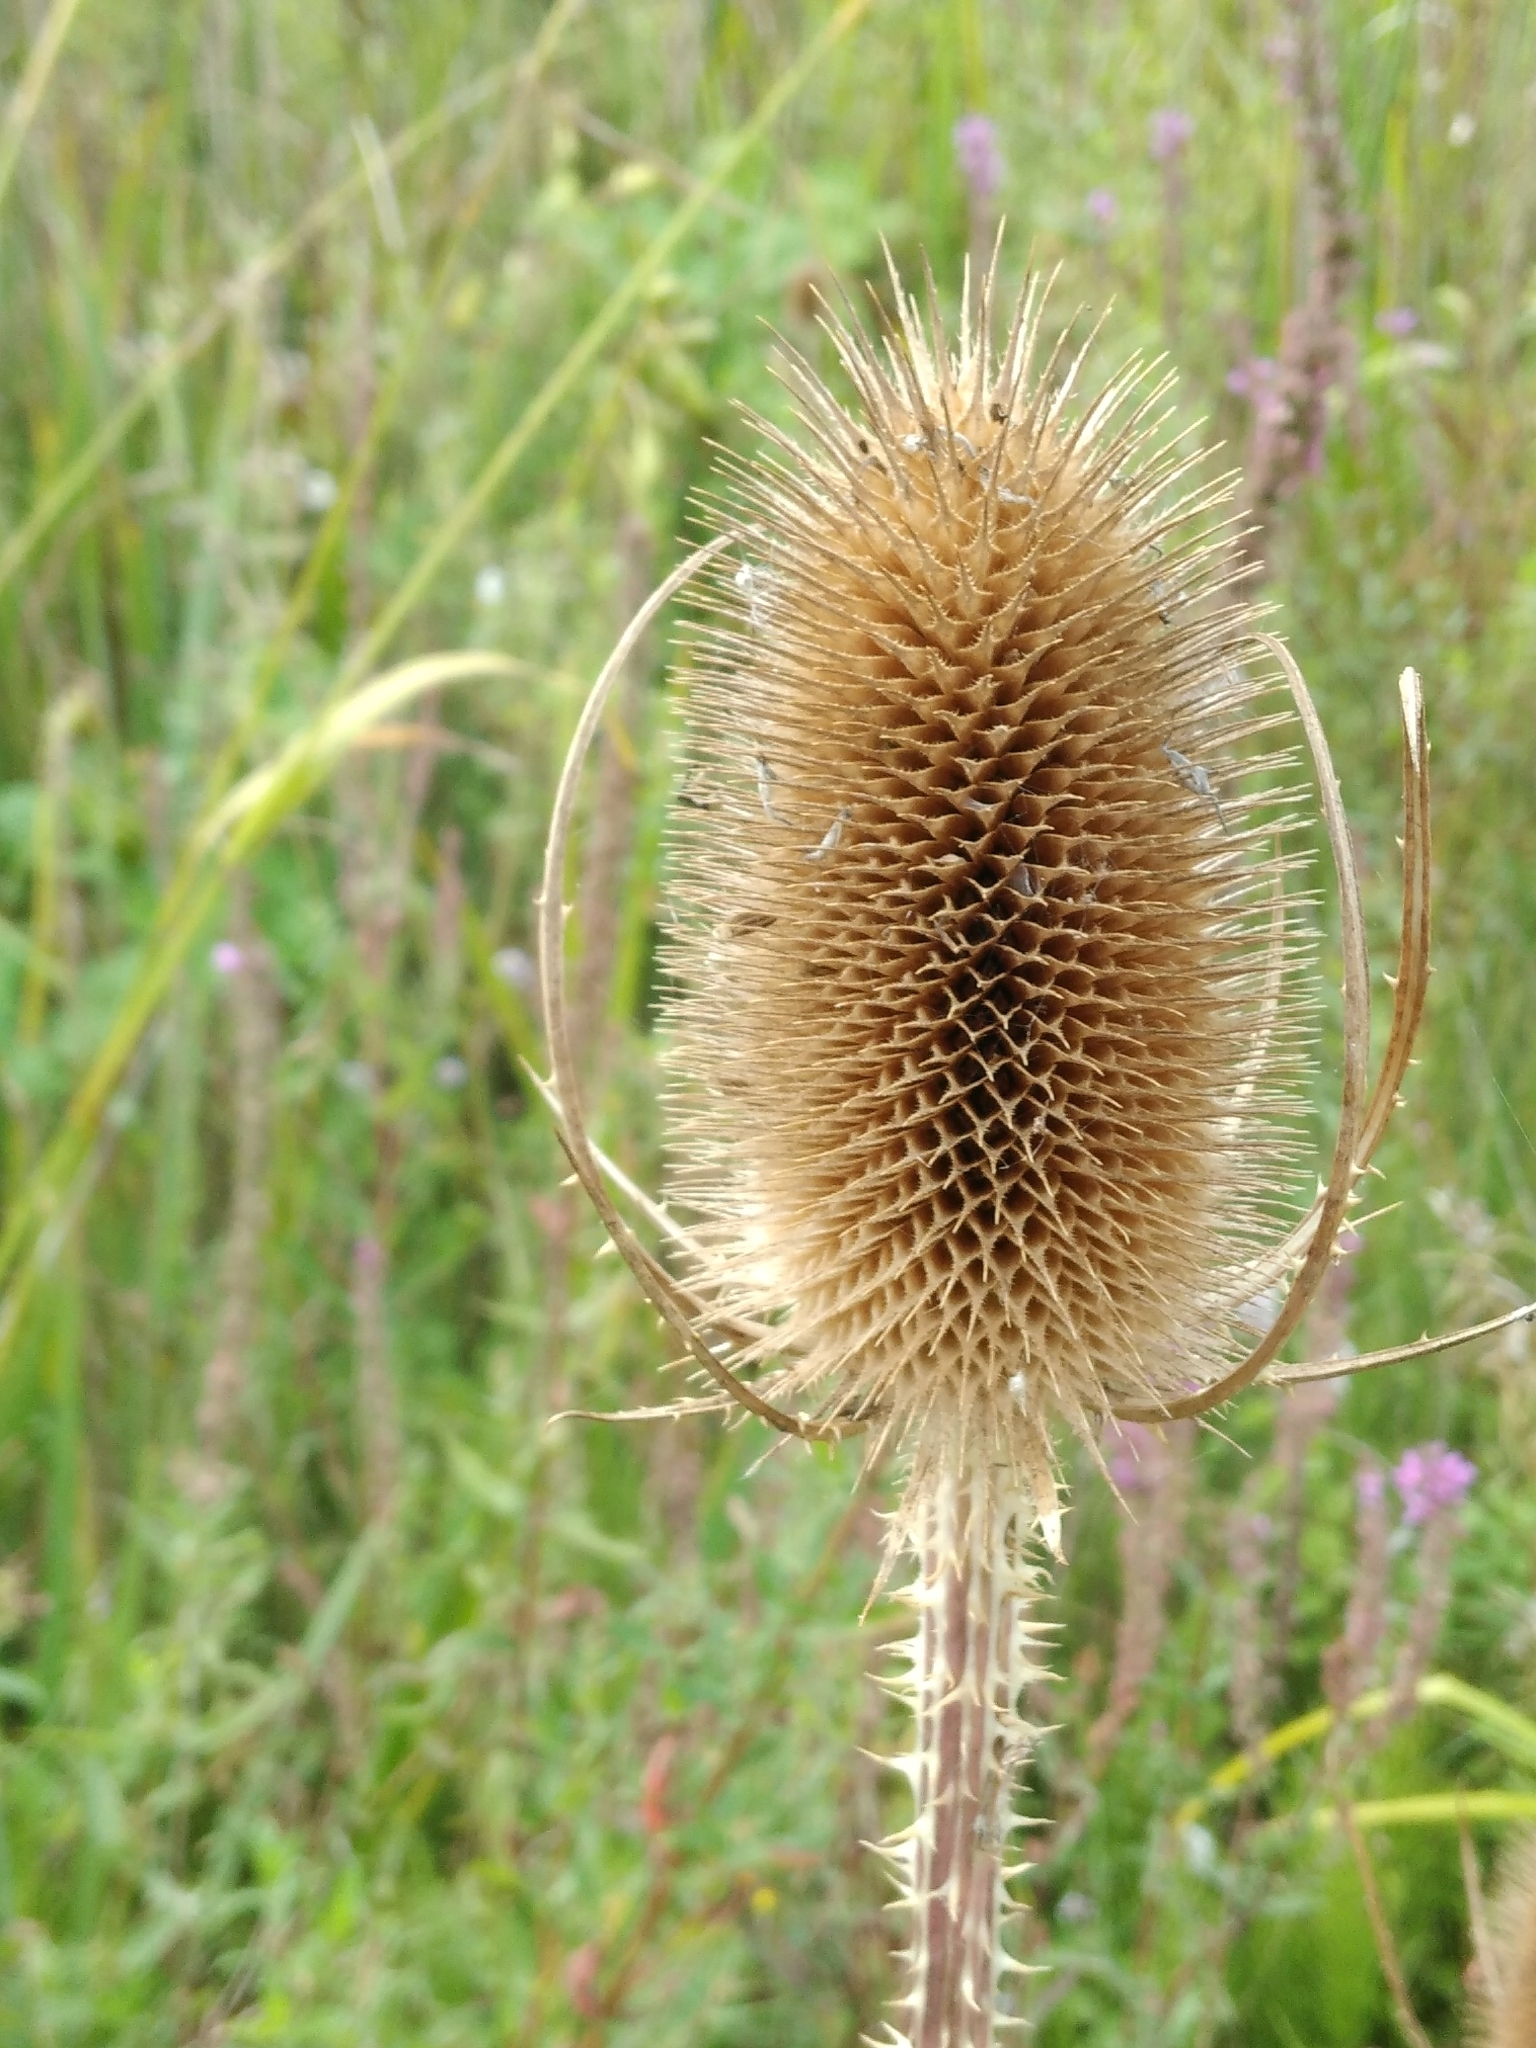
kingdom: Plantae
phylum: Tracheophyta
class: Magnoliopsida
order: Dipsacales
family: Caprifoliaceae
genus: Dipsacus
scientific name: Dipsacus fullonum
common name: Teasel
